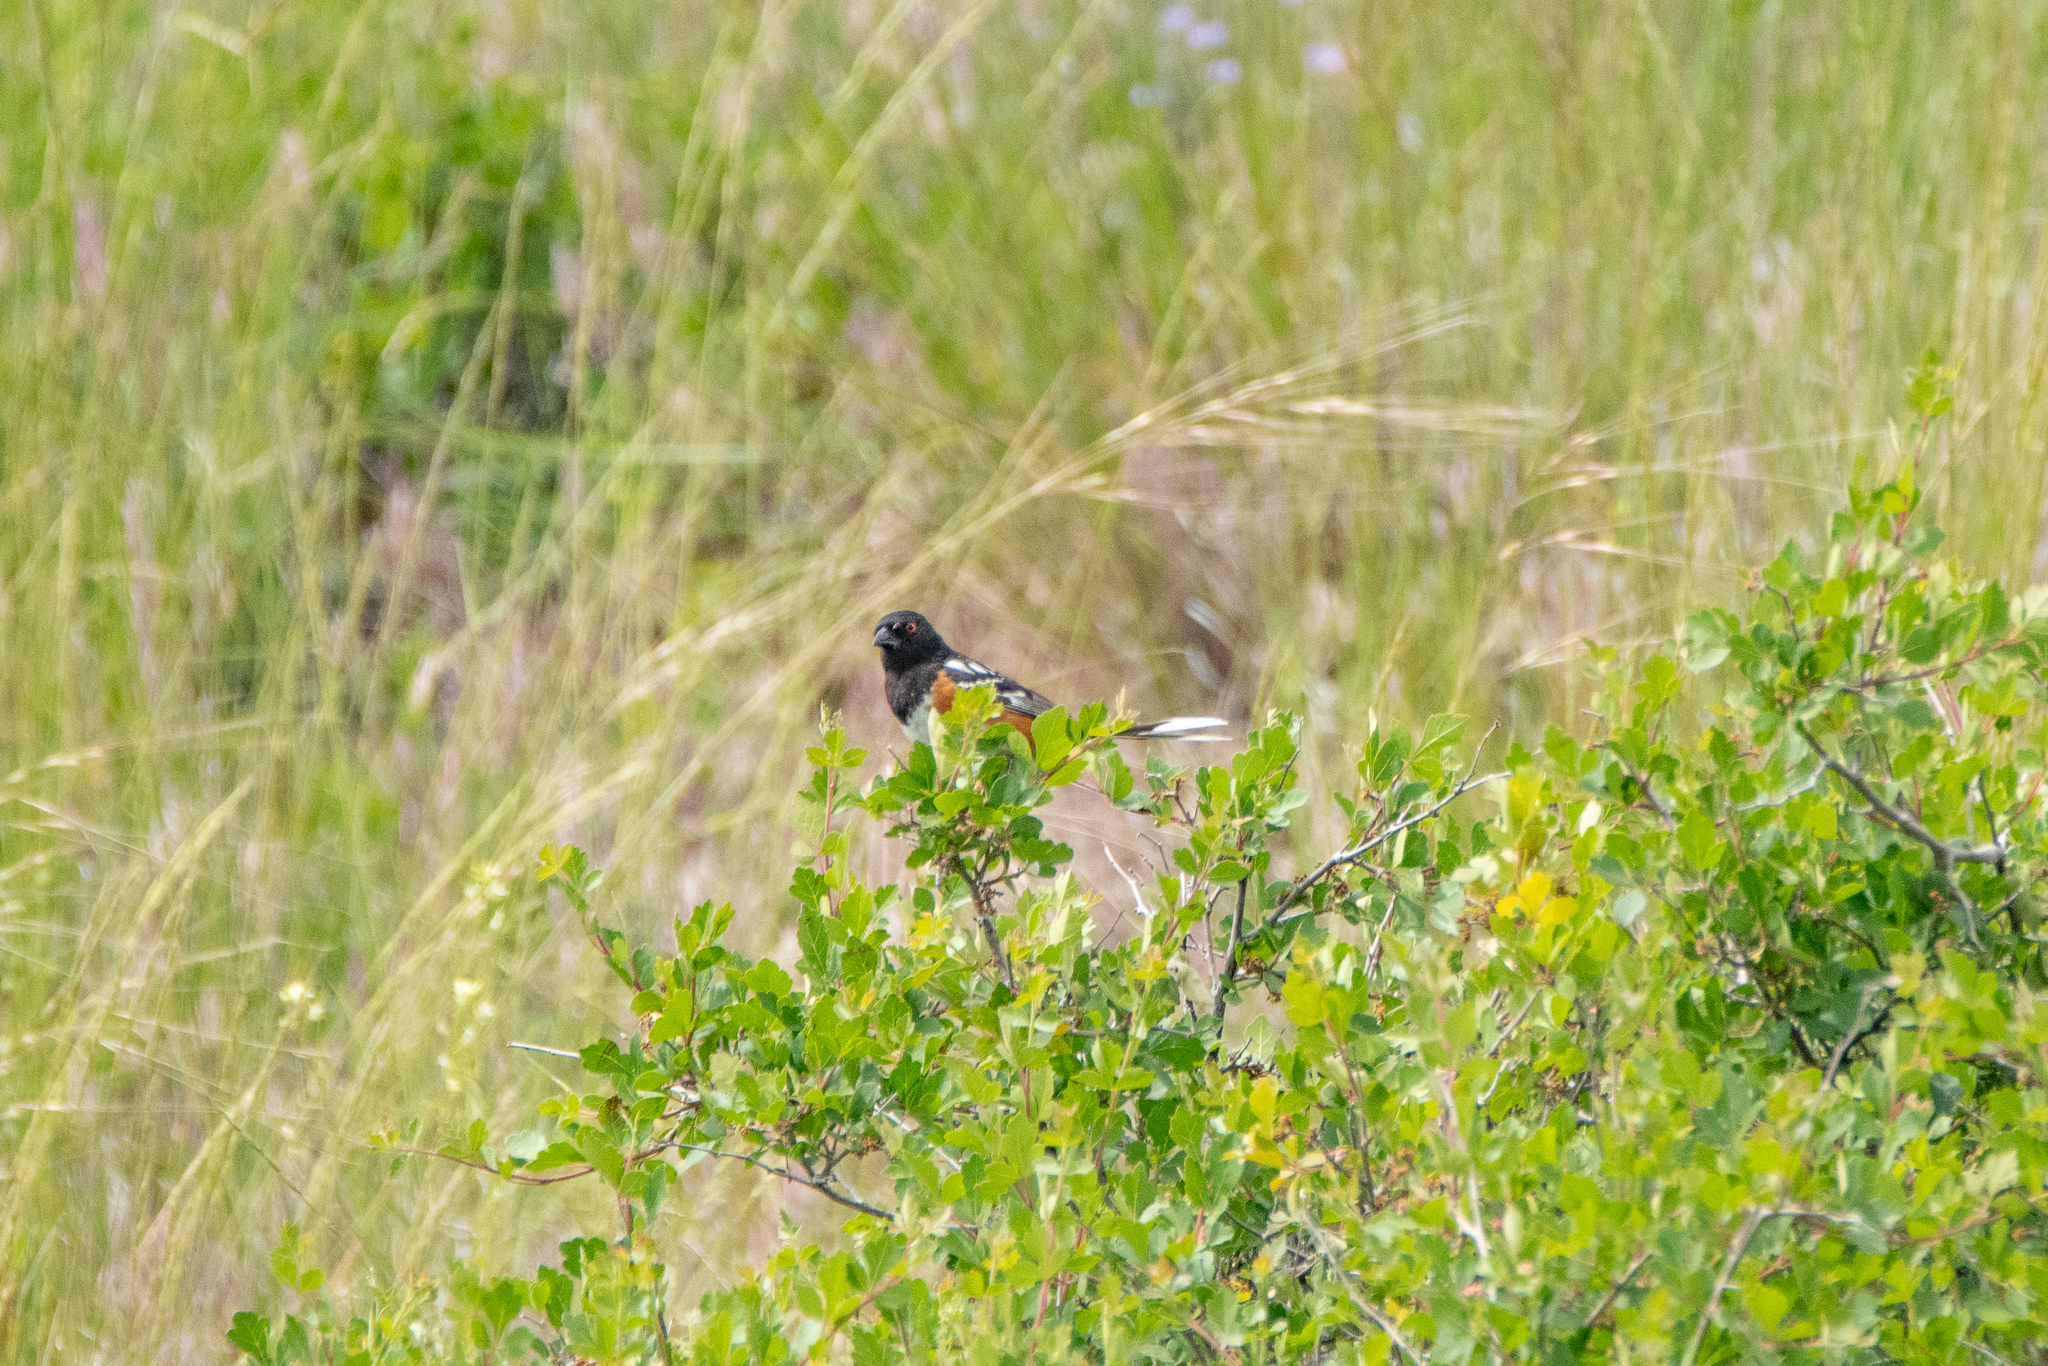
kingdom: Animalia
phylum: Chordata
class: Aves
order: Passeriformes
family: Passerellidae
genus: Pipilo
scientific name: Pipilo maculatus
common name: Spotted towhee
